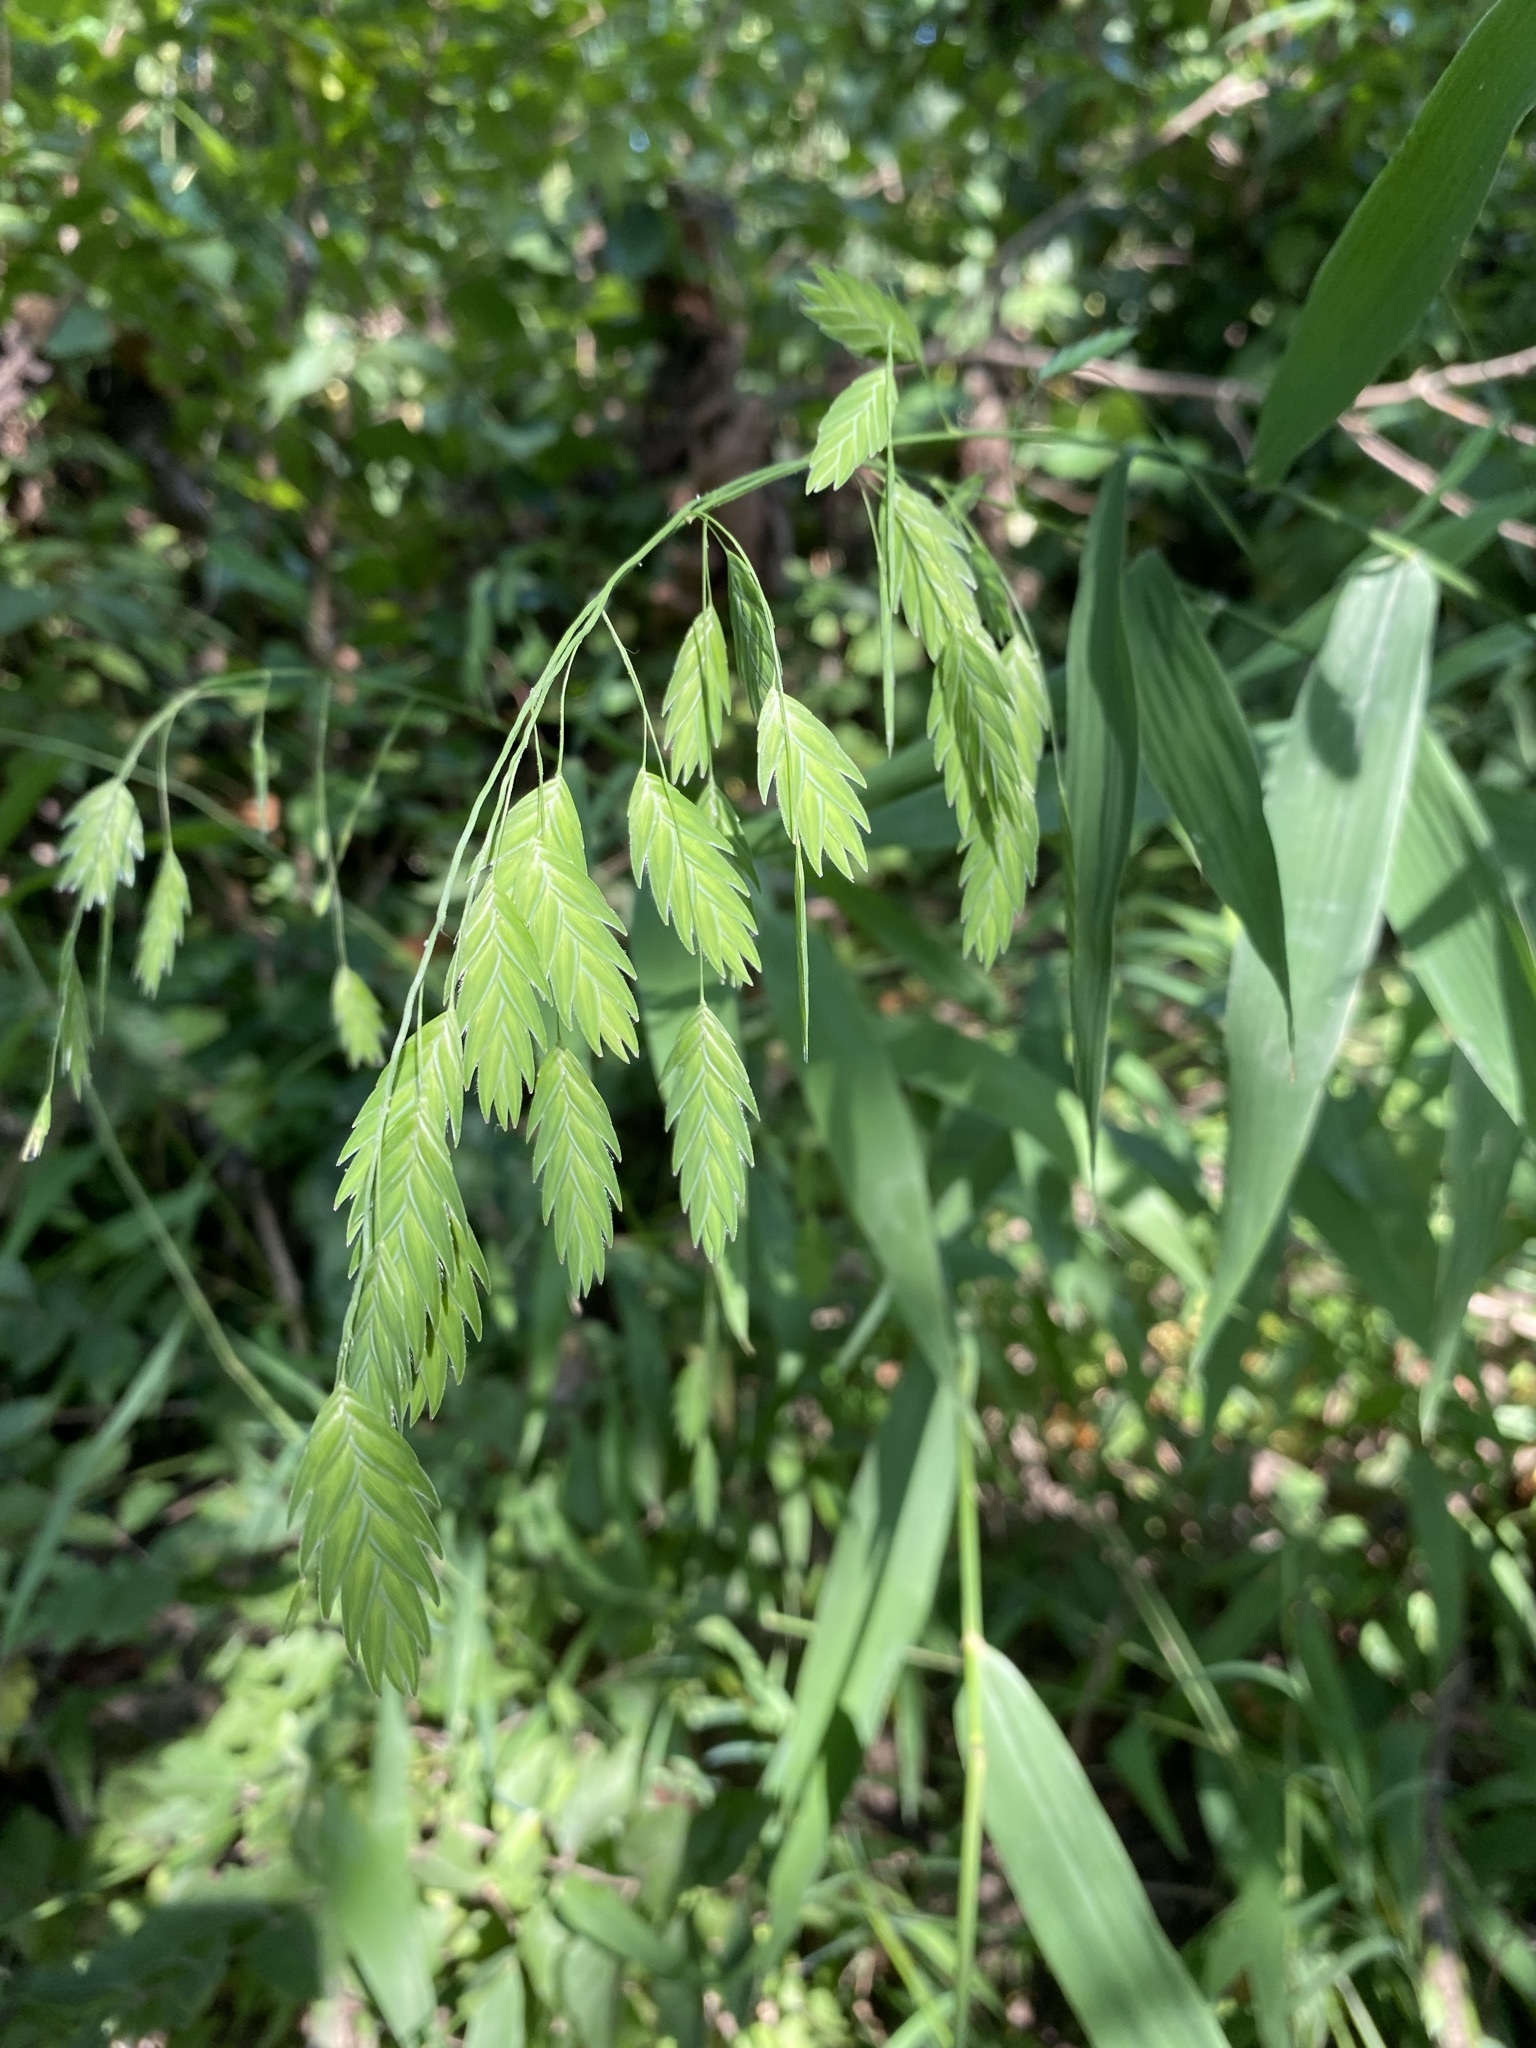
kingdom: Plantae
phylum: Tracheophyta
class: Liliopsida
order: Poales
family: Poaceae
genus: Chasmanthium
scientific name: Chasmanthium latifolium
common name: Broad-leaved chasmanthium
